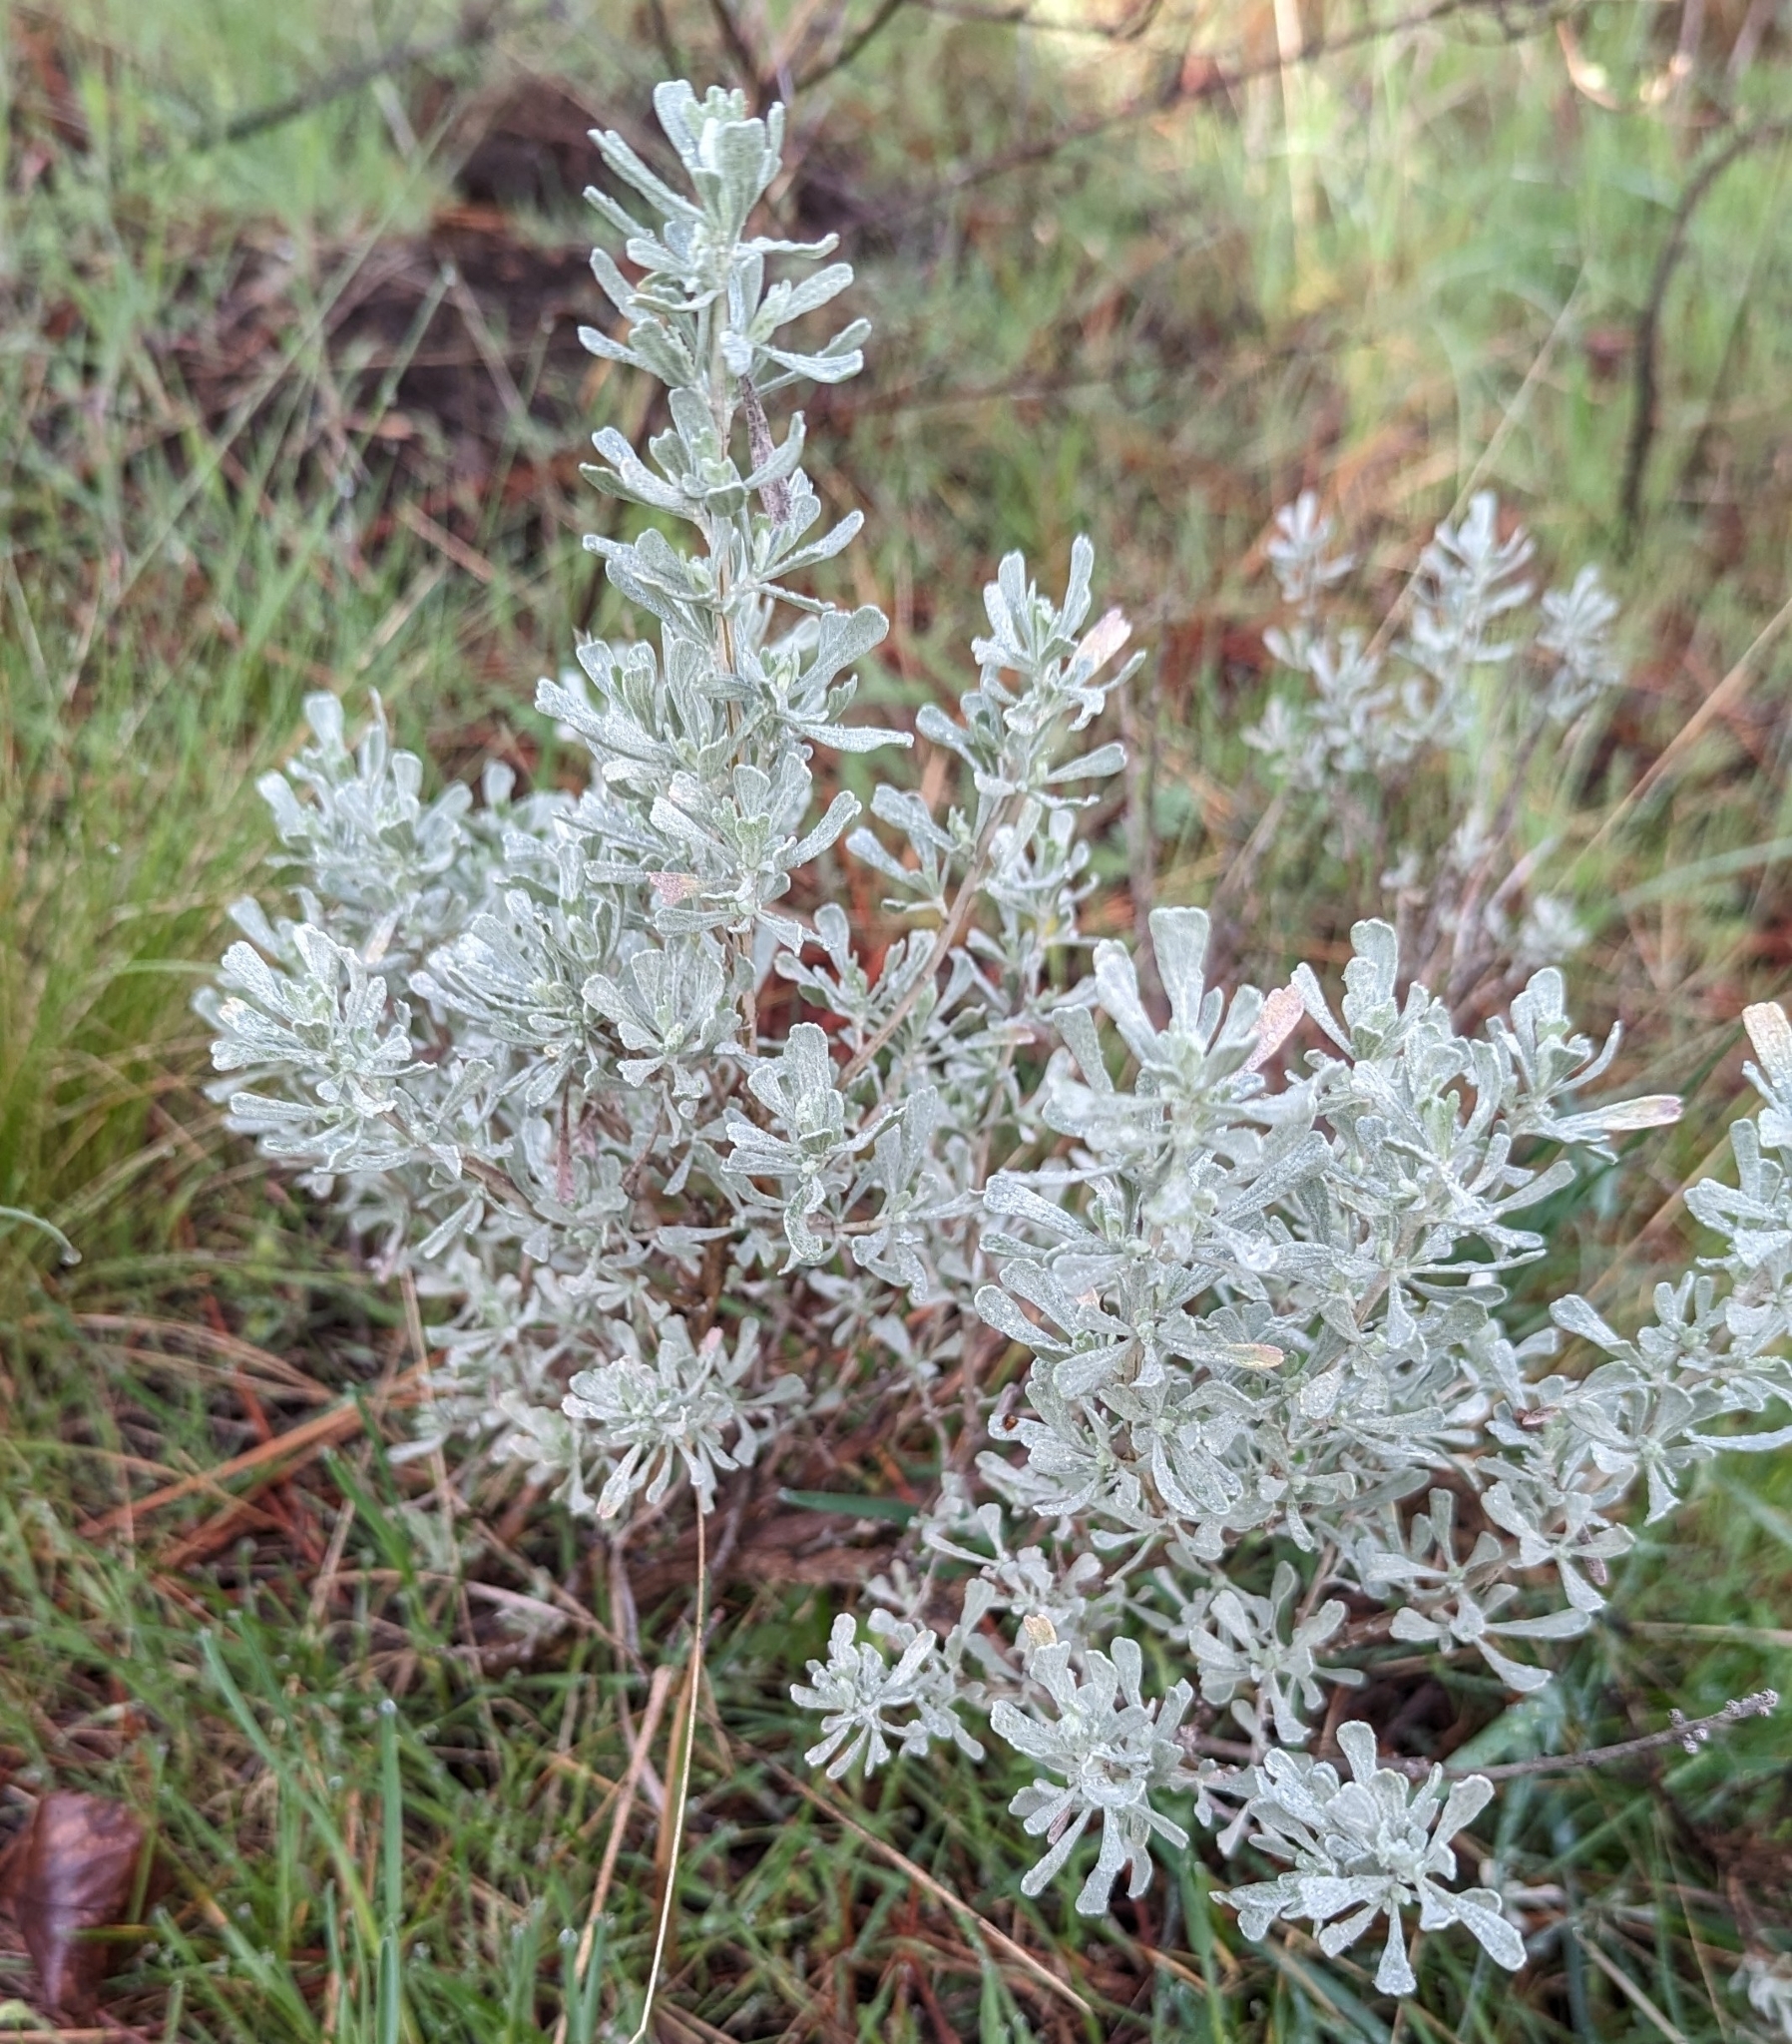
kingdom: Plantae
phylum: Tracheophyta
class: Magnoliopsida
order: Asterales
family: Asteraceae
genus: Artemisia
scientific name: Artemisia tridentata
